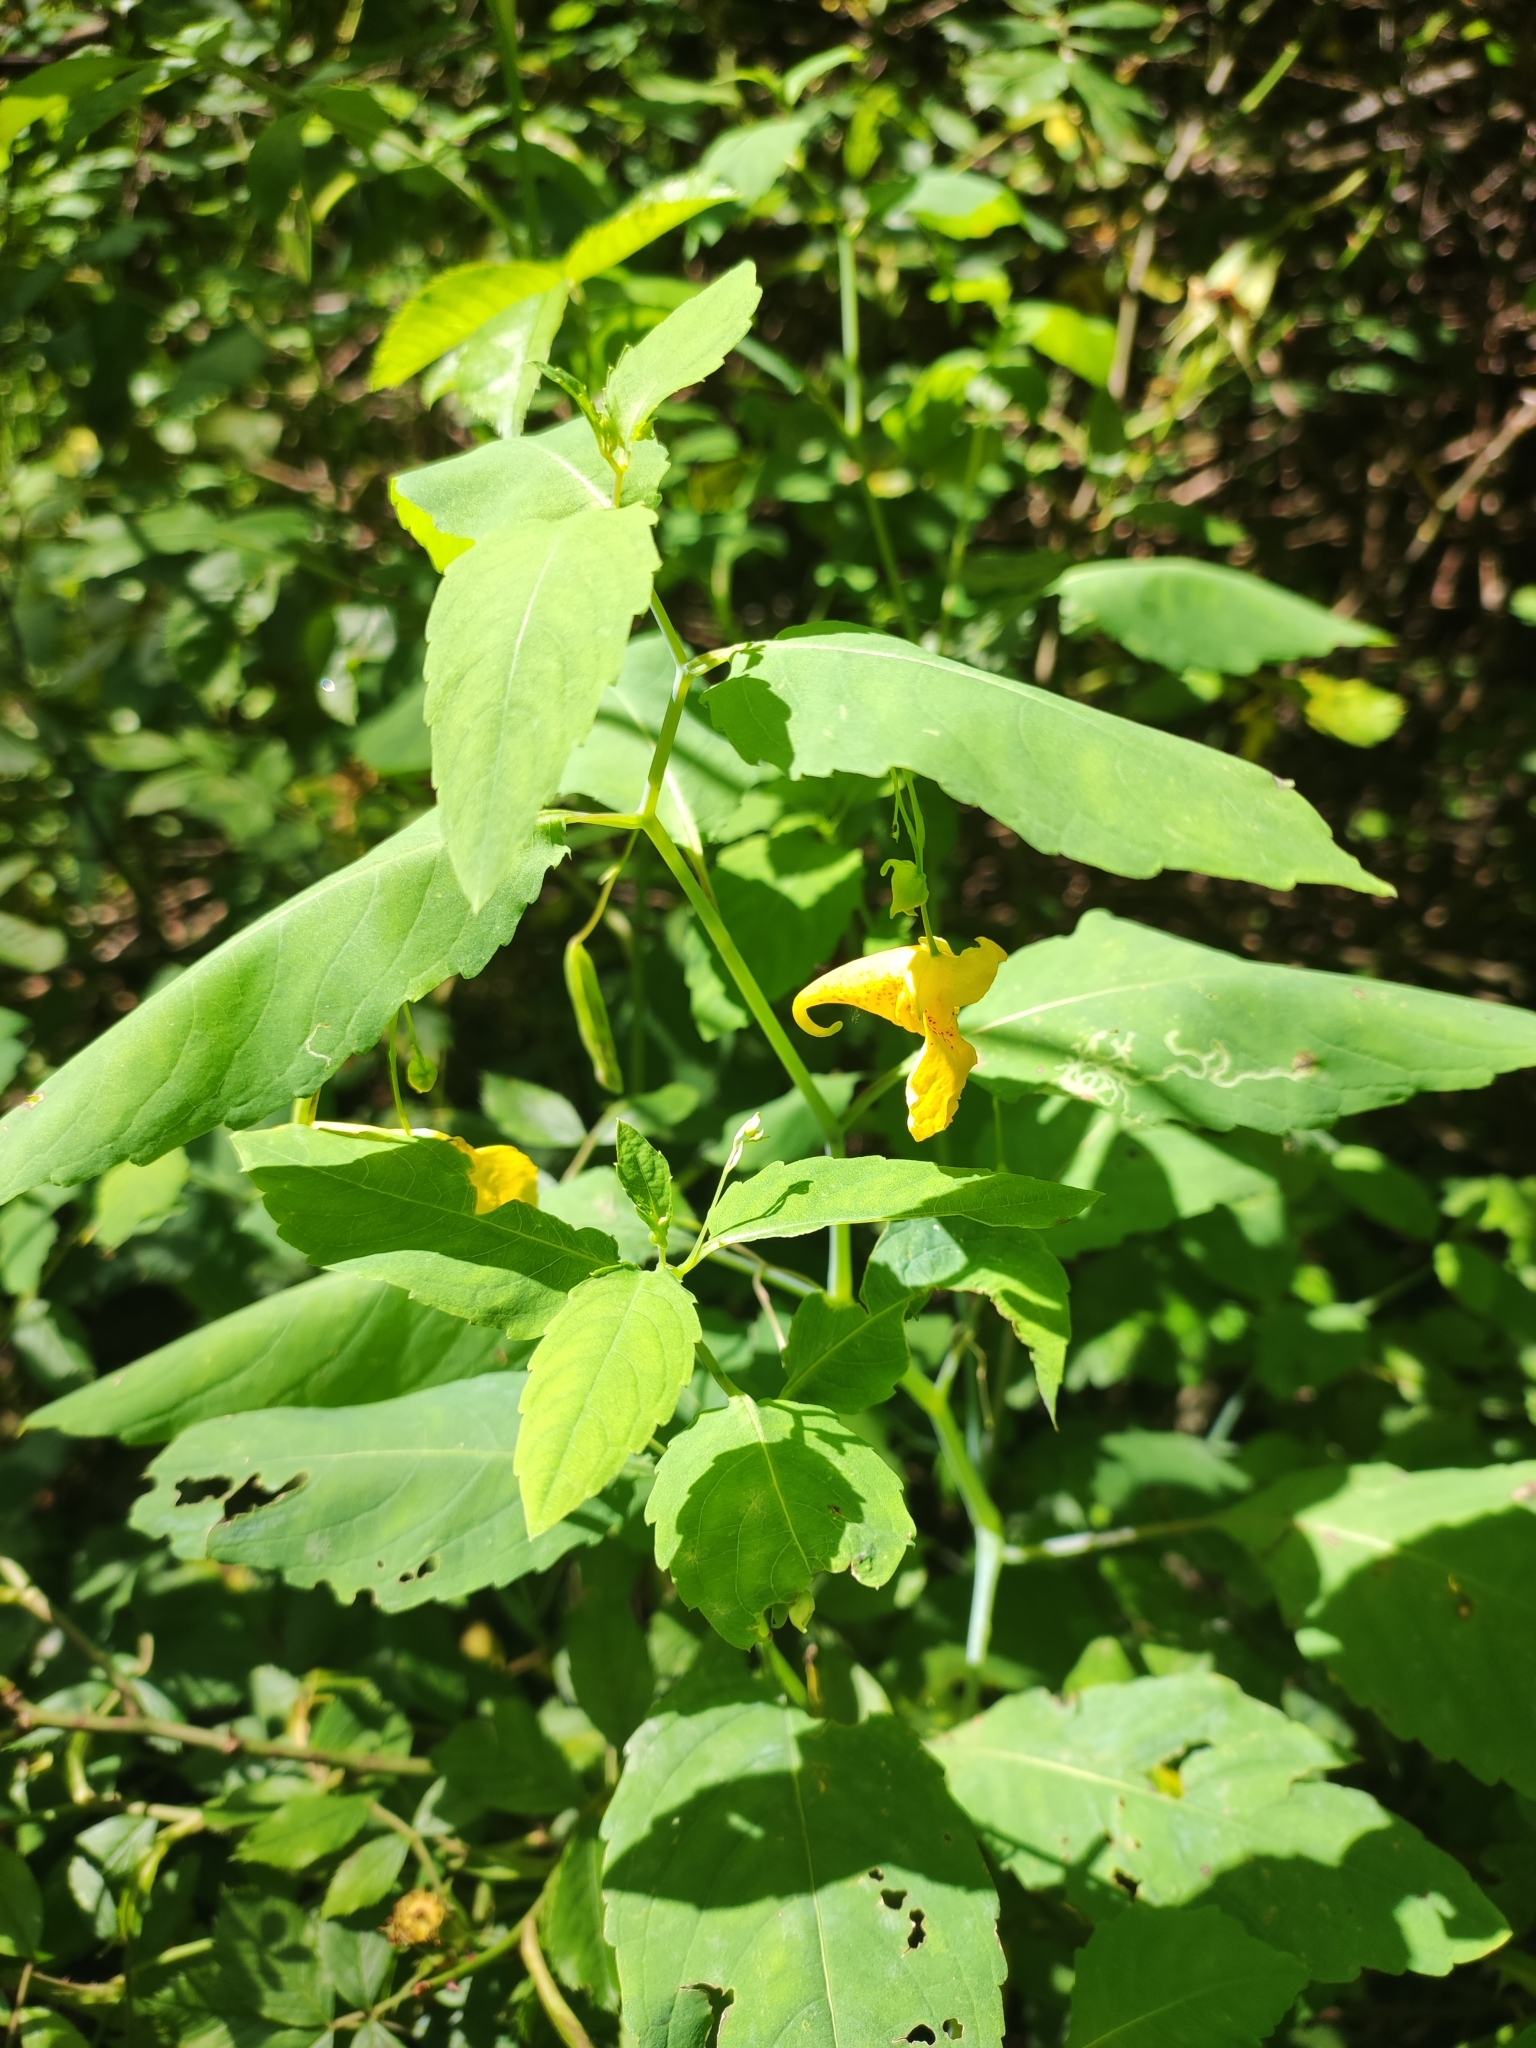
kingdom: Plantae
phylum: Tracheophyta
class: Magnoliopsida
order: Ericales
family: Balsaminaceae
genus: Impatiens
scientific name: Impatiens noli-tangere
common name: Touch-me-not balsam
